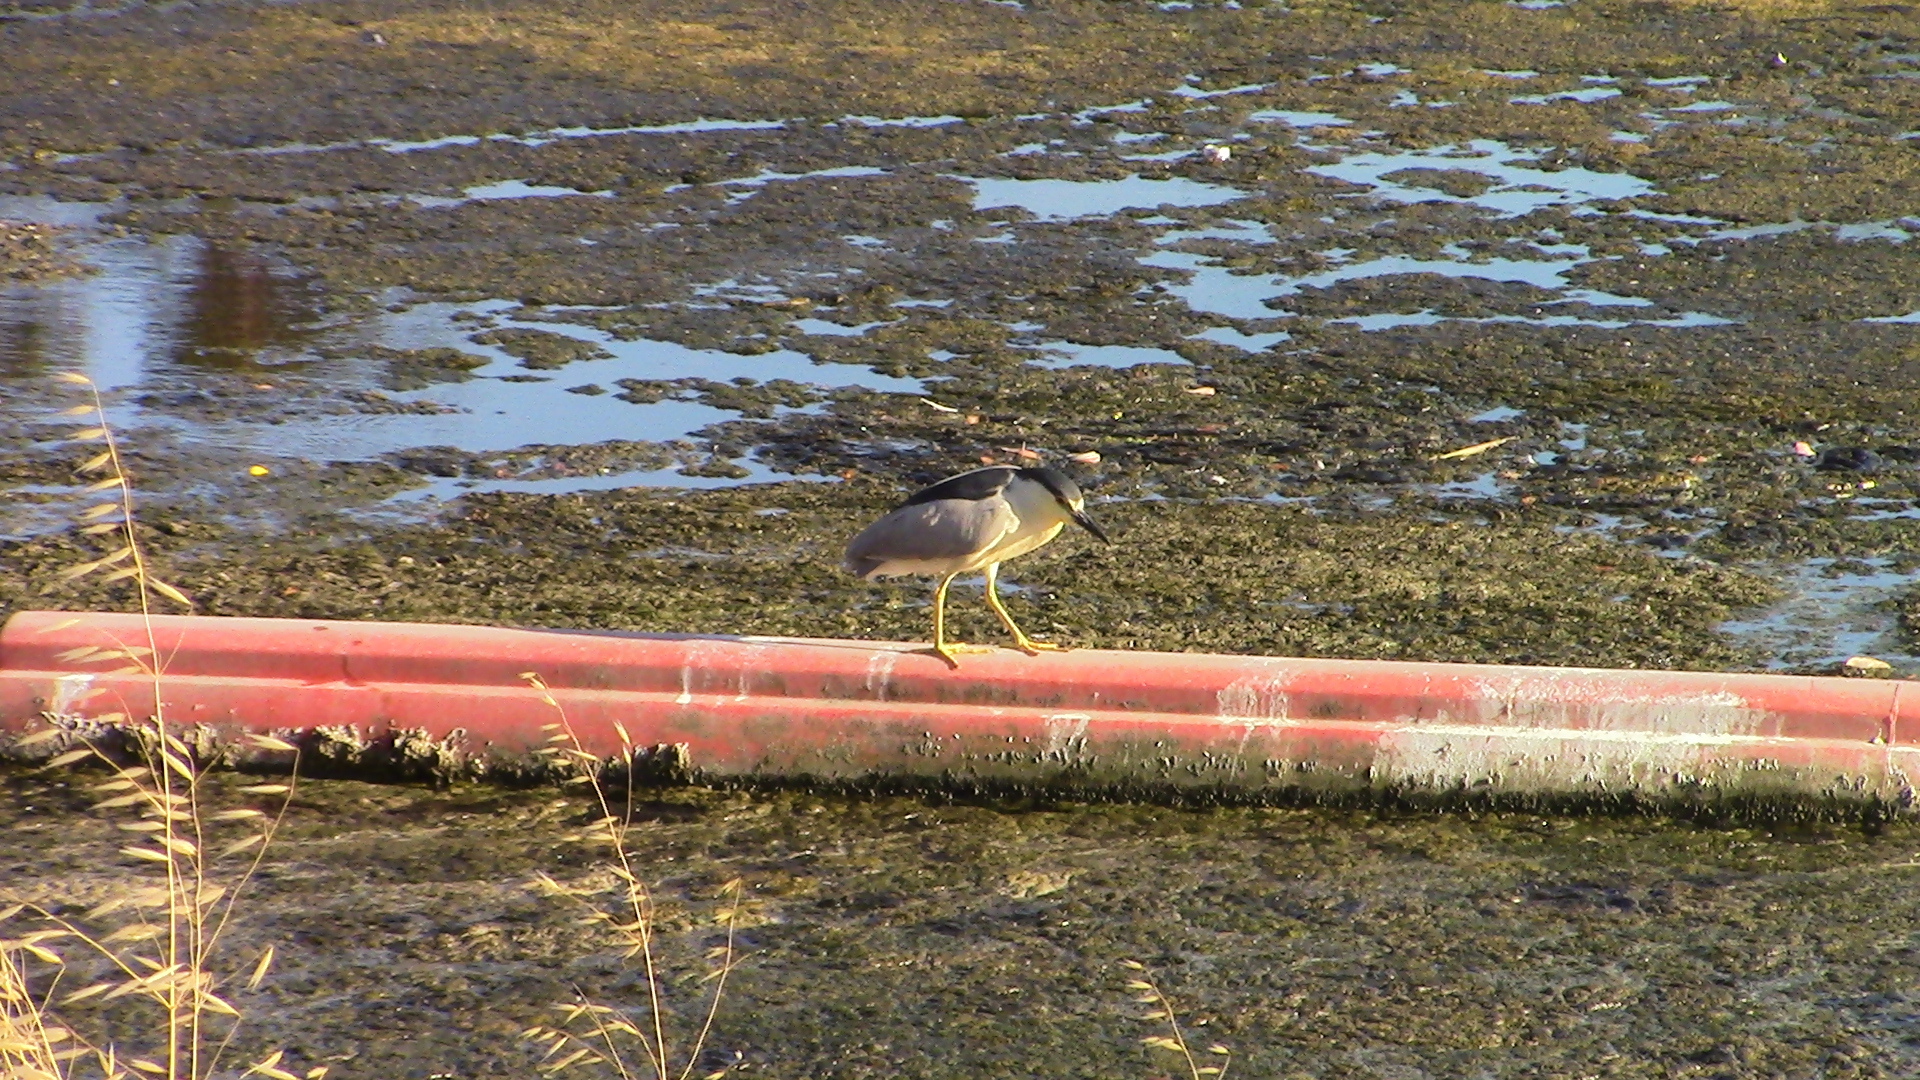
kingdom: Animalia
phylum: Chordata
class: Aves
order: Pelecaniformes
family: Ardeidae
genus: Nycticorax
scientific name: Nycticorax nycticorax
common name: Black-crowned night heron
